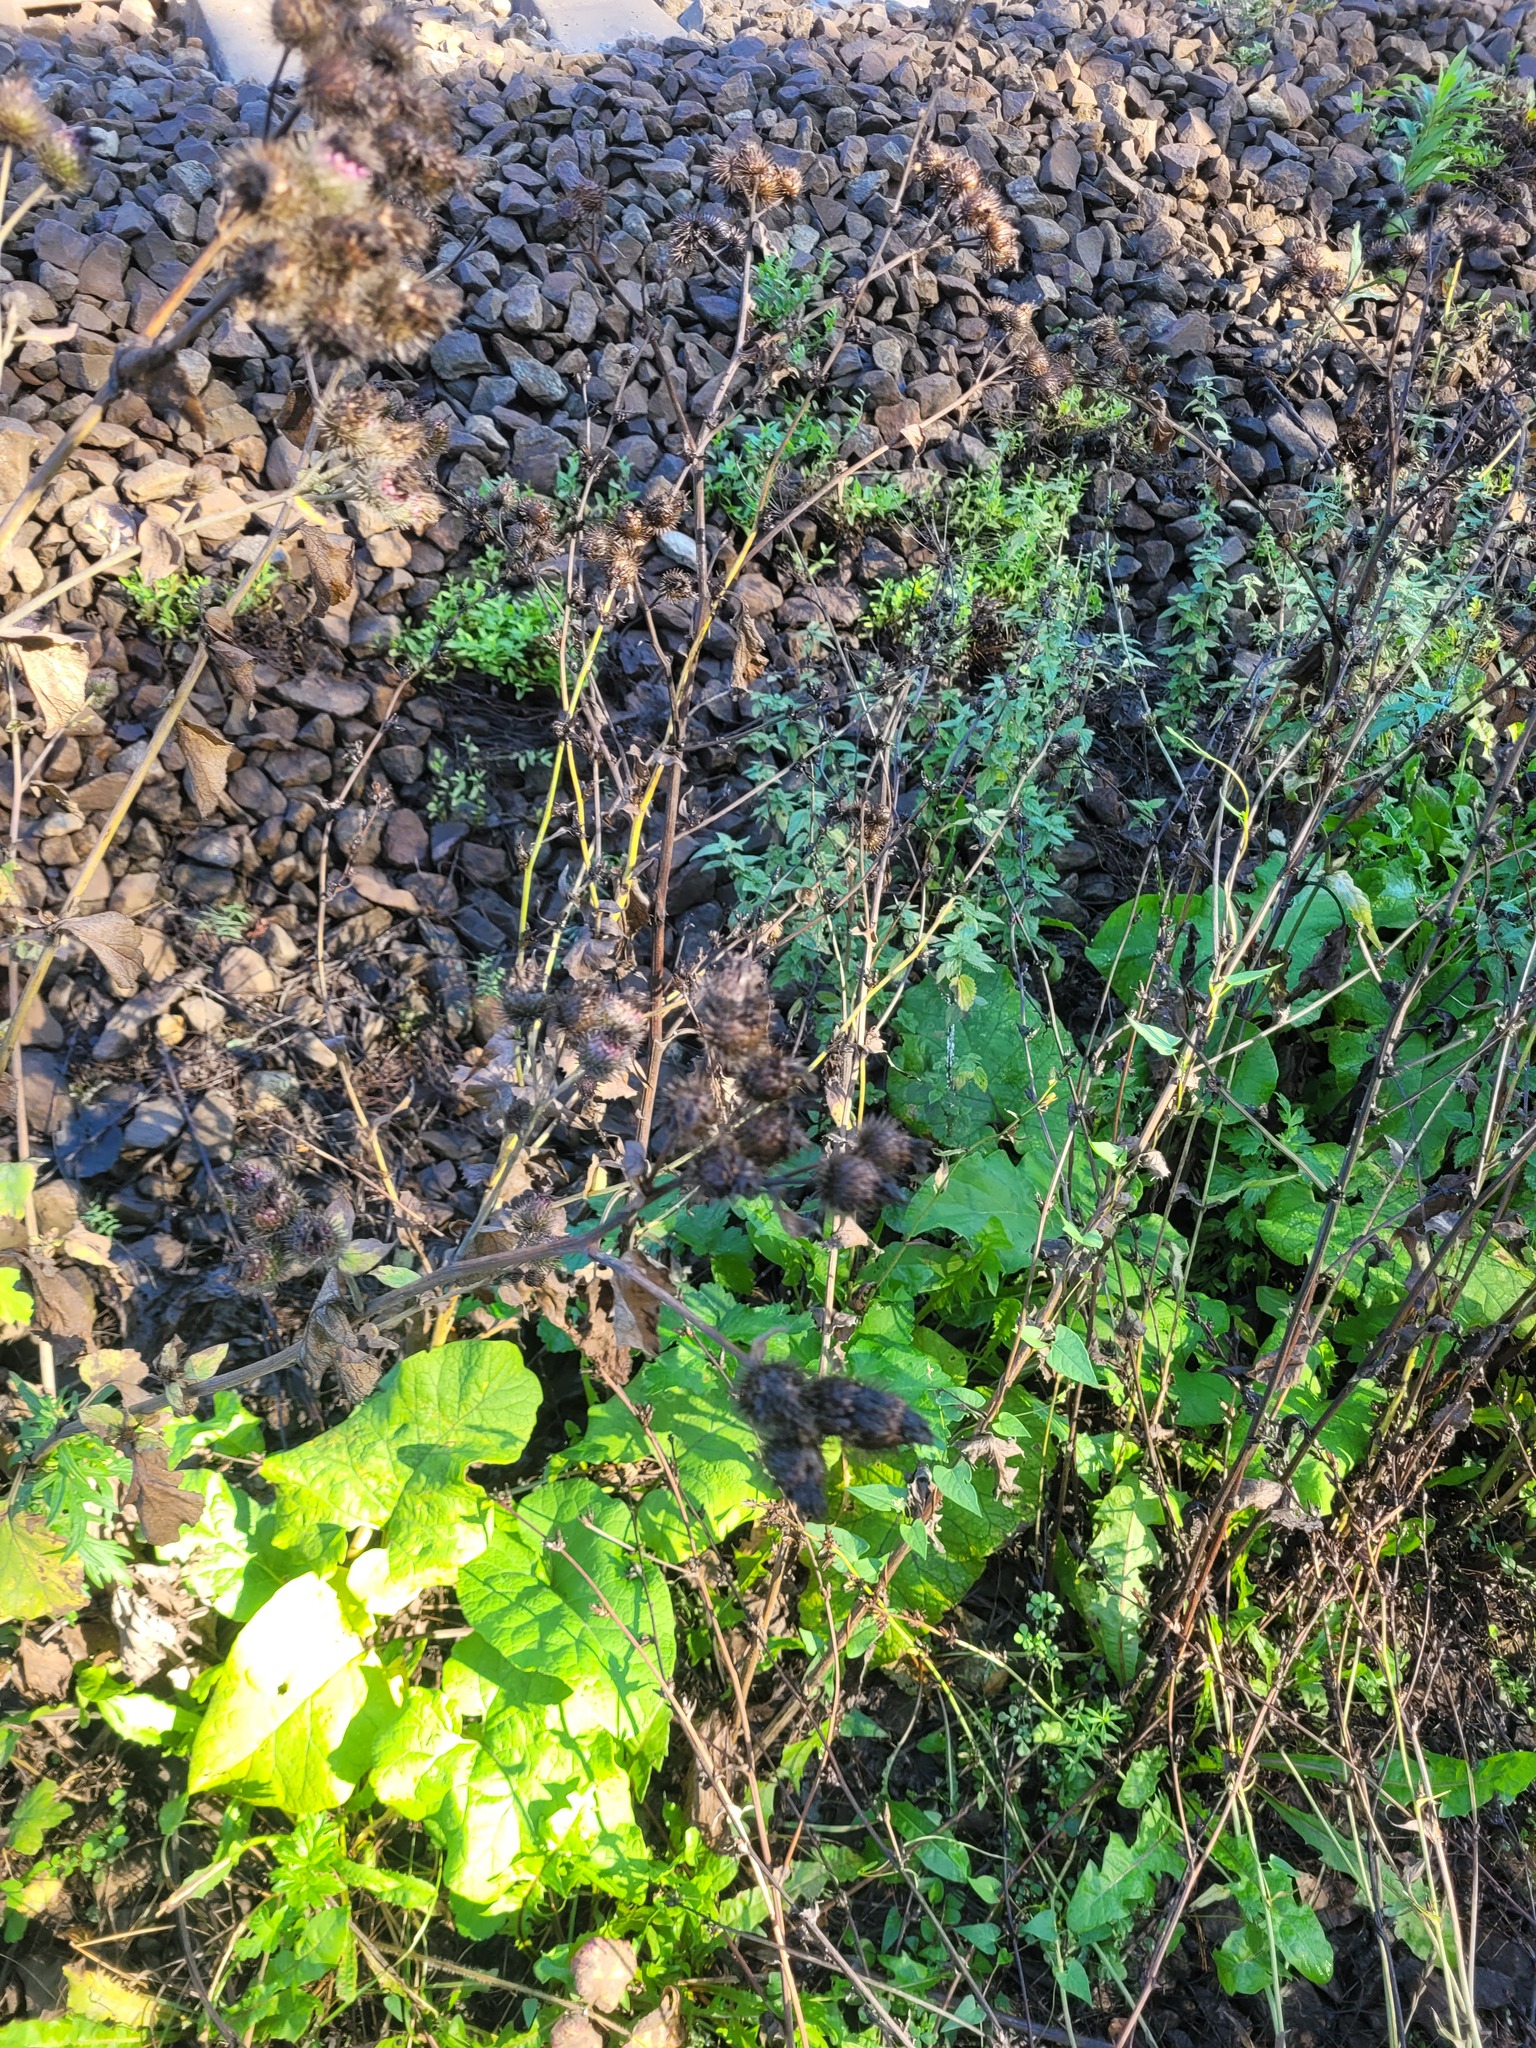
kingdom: Plantae
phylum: Tracheophyta
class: Magnoliopsida
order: Asterales
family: Asteraceae
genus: Arctium
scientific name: Arctium tomentosum
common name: Woolly burdock
